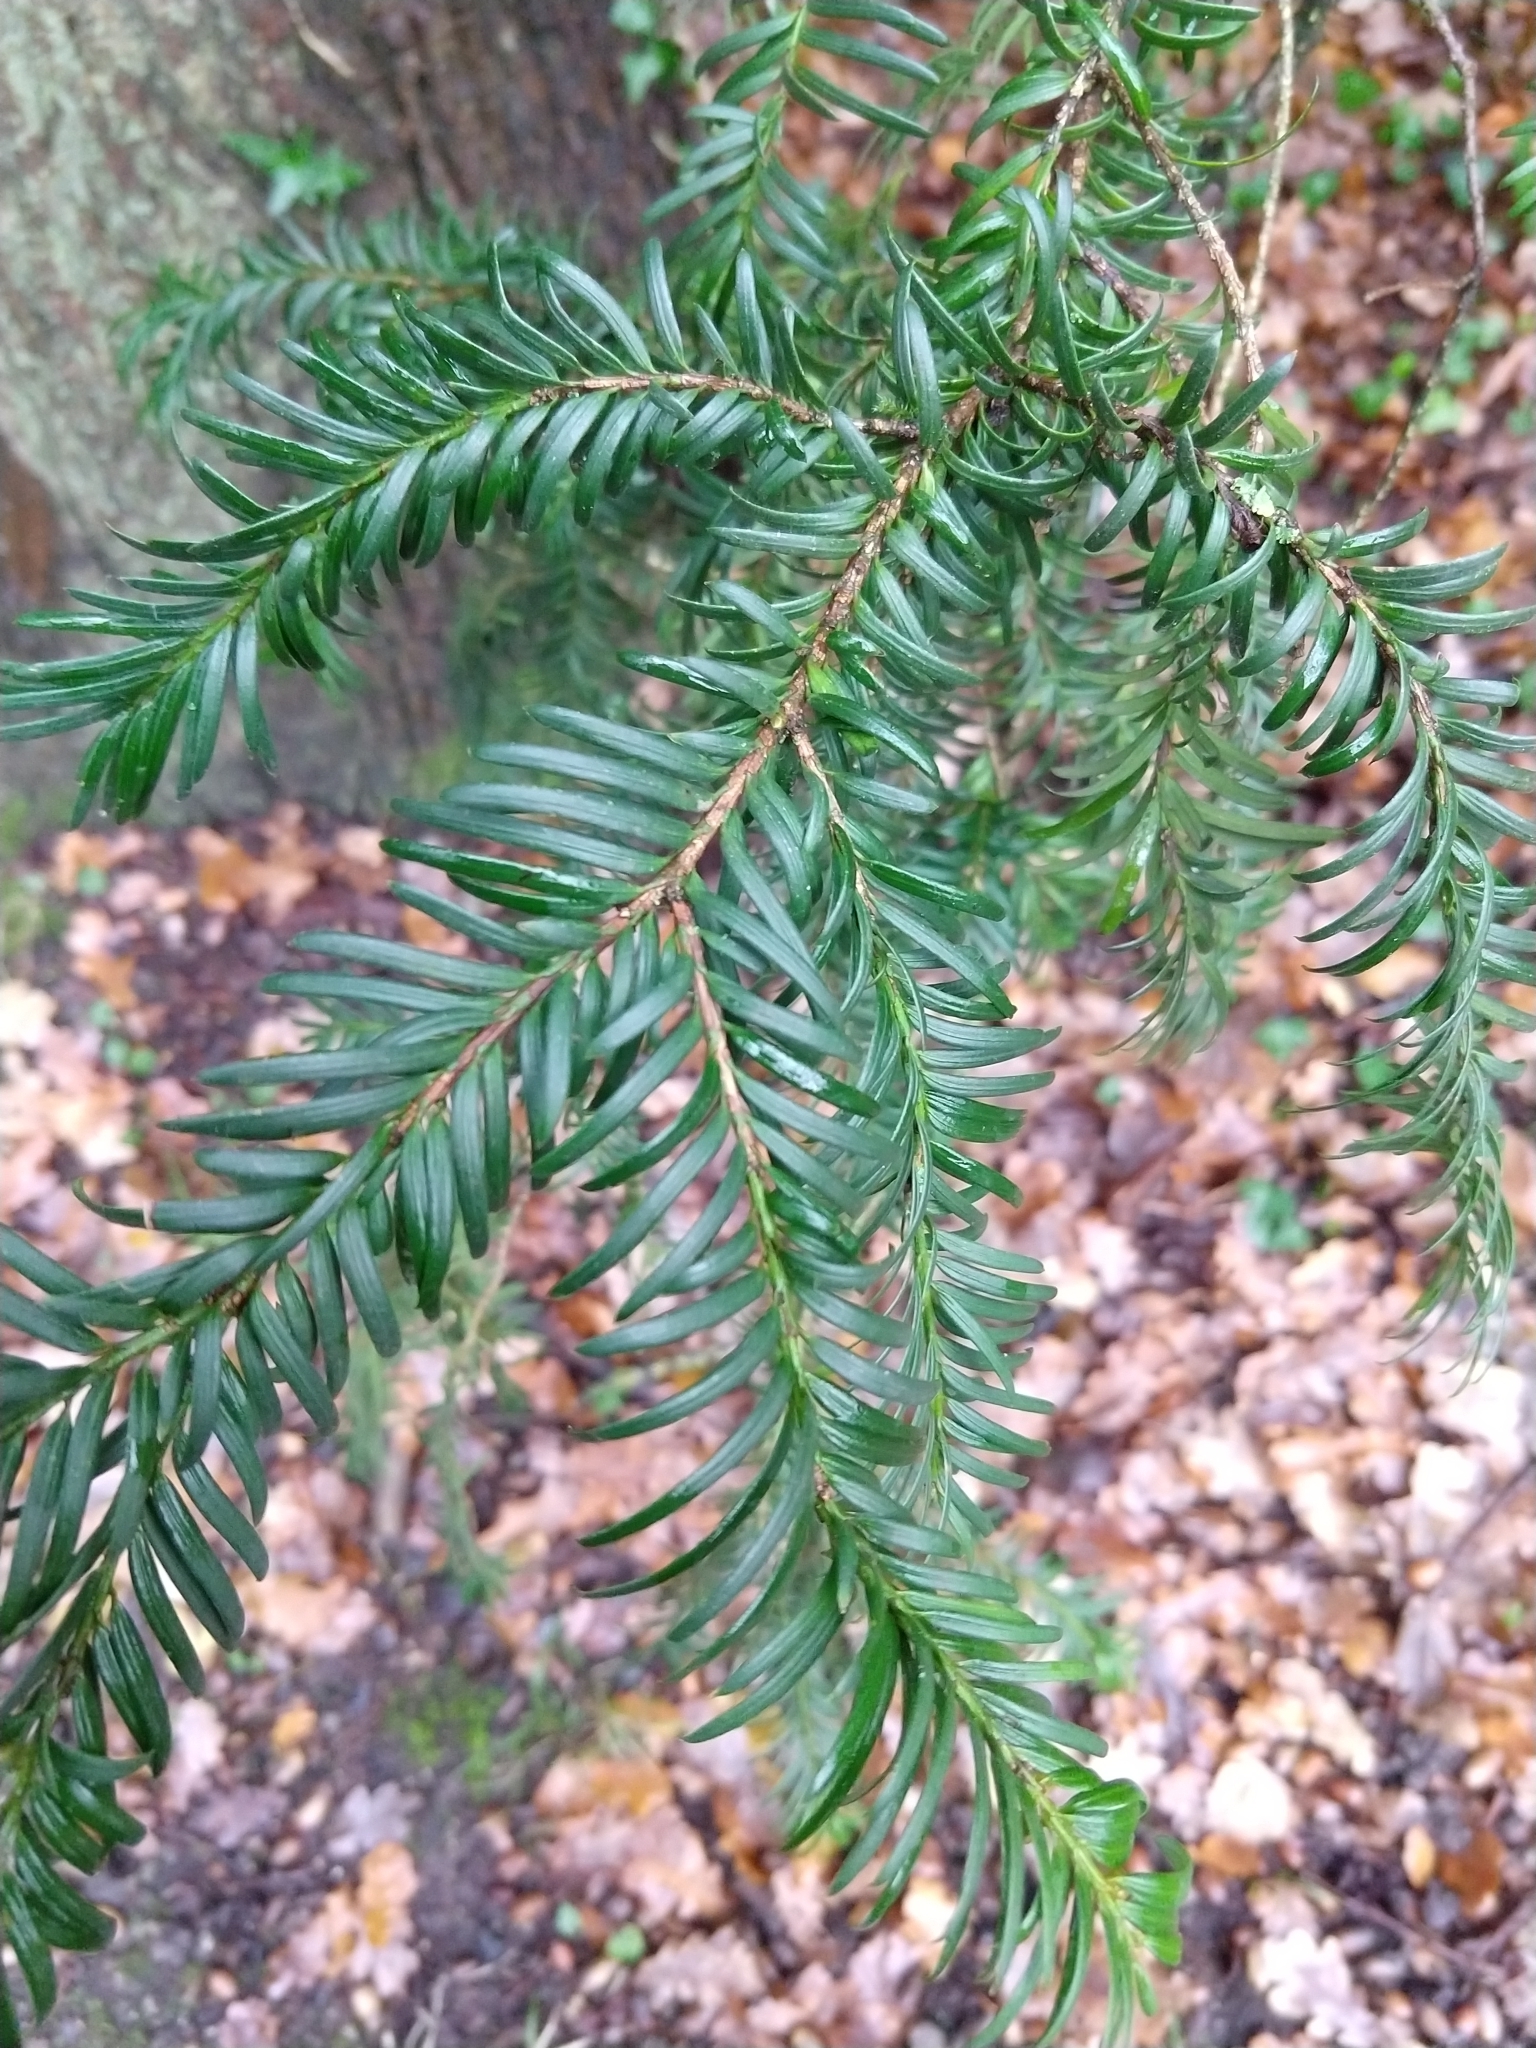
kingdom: Plantae
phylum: Tracheophyta
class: Pinopsida
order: Pinales
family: Taxaceae
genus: Taxus
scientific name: Taxus baccata
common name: Yew
